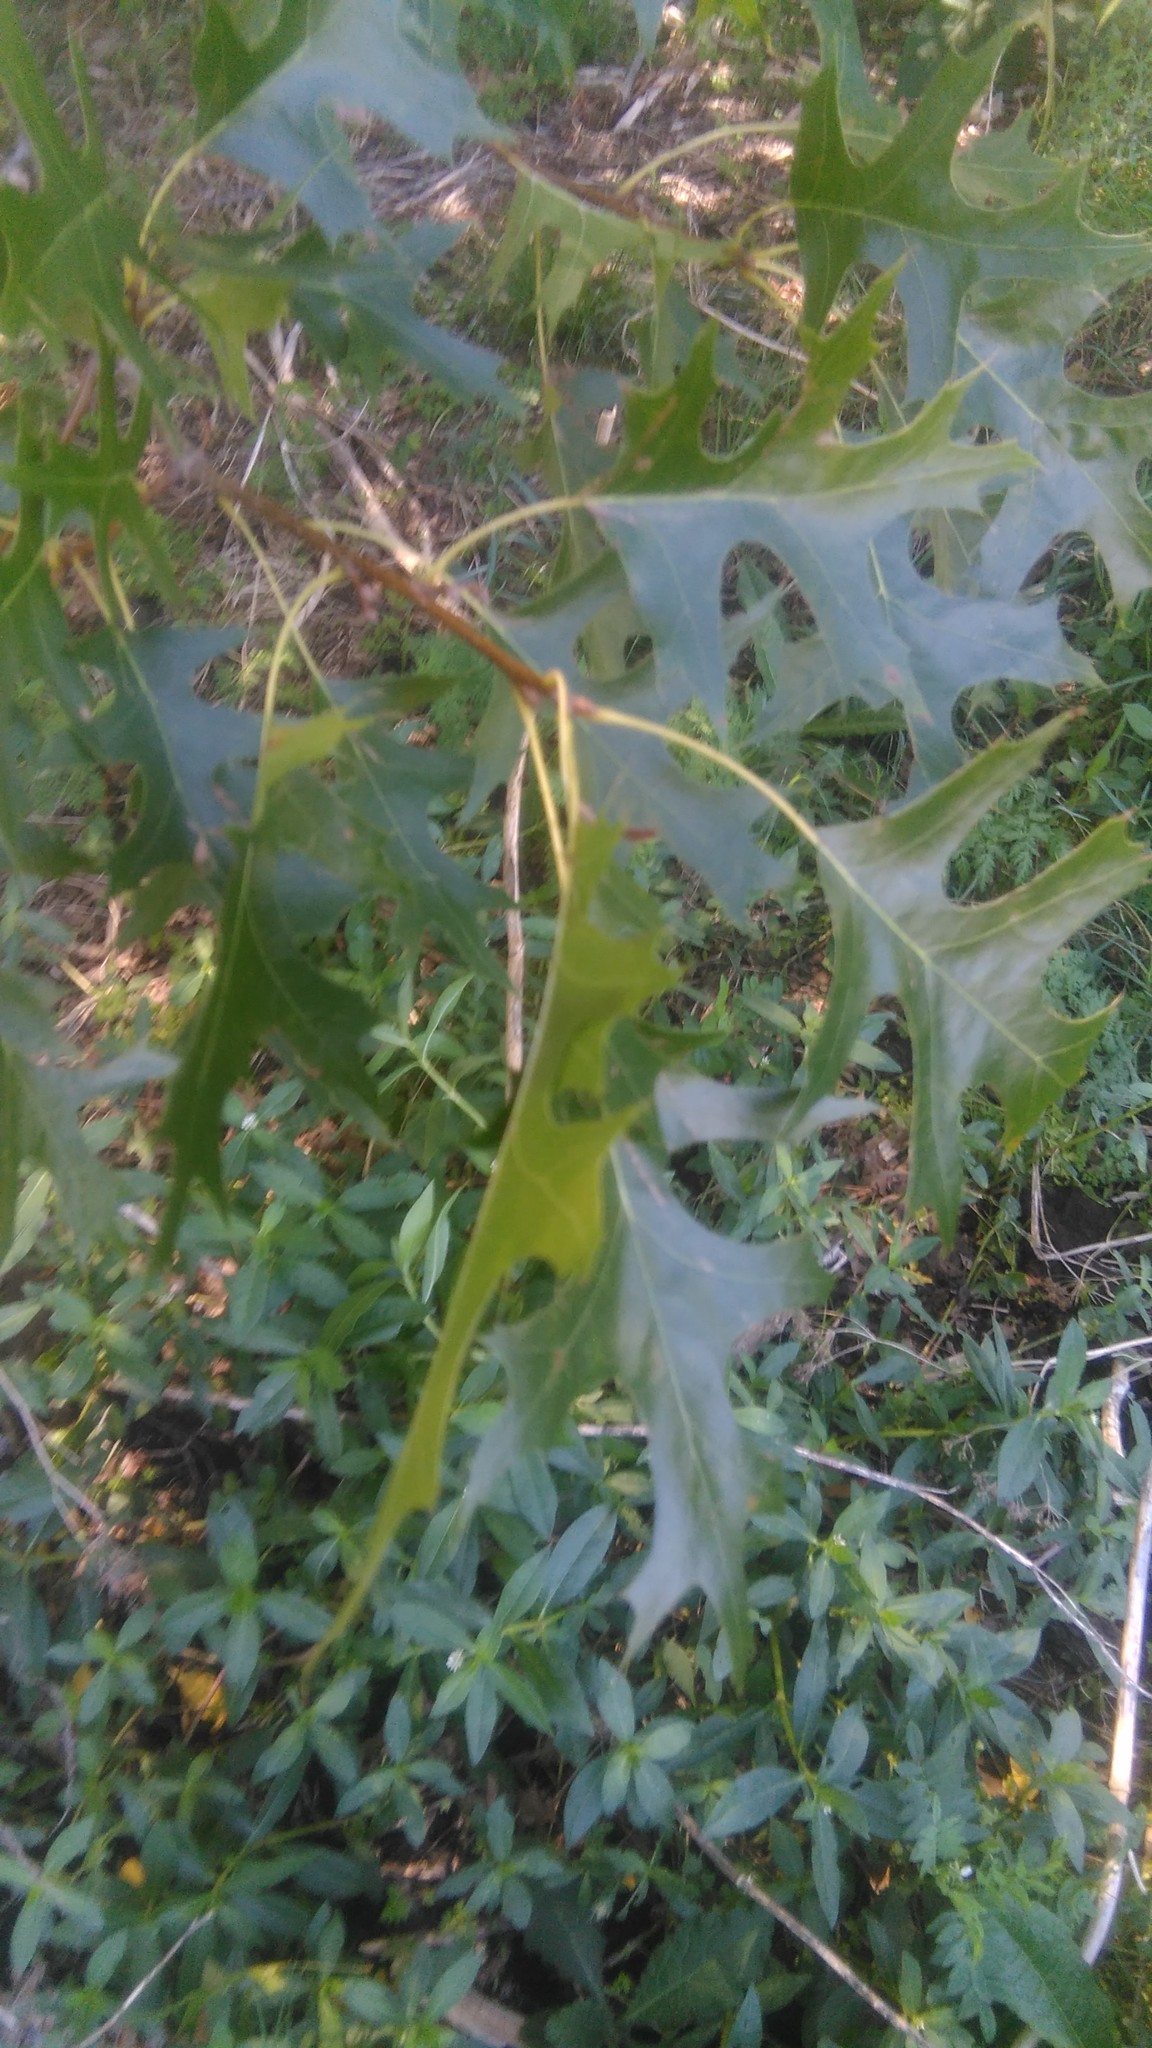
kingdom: Plantae
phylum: Tracheophyta
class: Magnoliopsida
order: Fagales
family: Fagaceae
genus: Quercus
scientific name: Quercus palustris
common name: Pin oak
